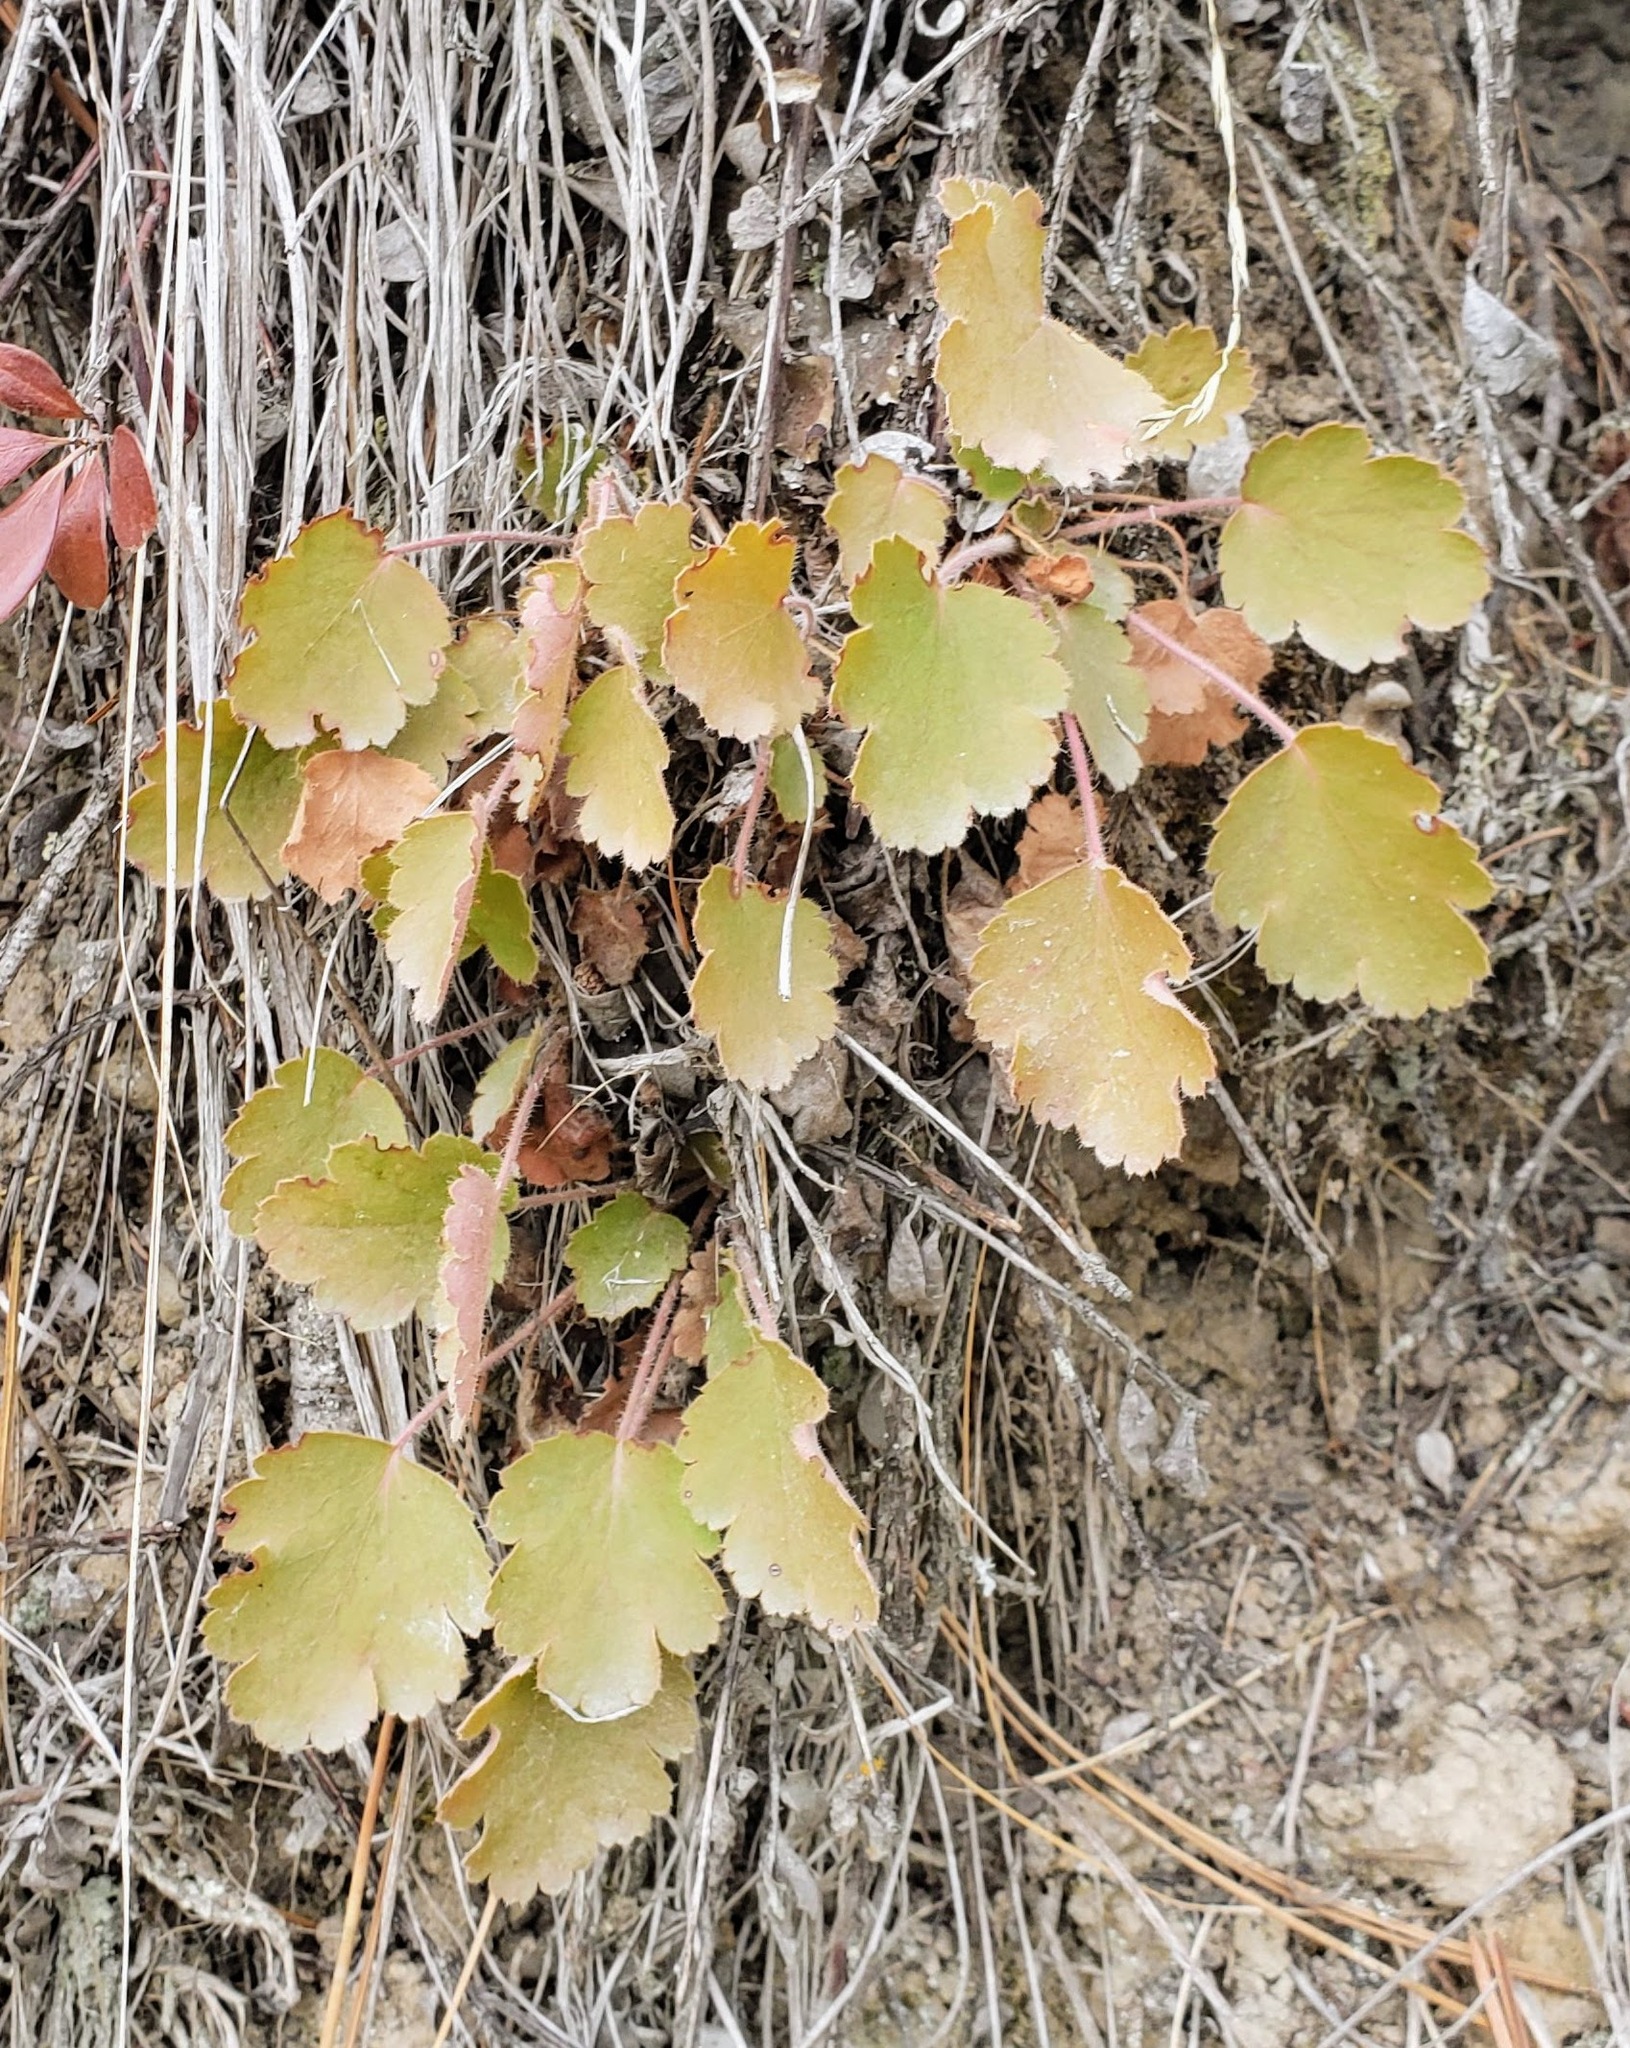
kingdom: Plantae
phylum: Tracheophyta
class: Magnoliopsida
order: Saxifragales
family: Saxifragaceae
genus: Heuchera
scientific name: Heuchera cylindrica
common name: Mat alumroot
